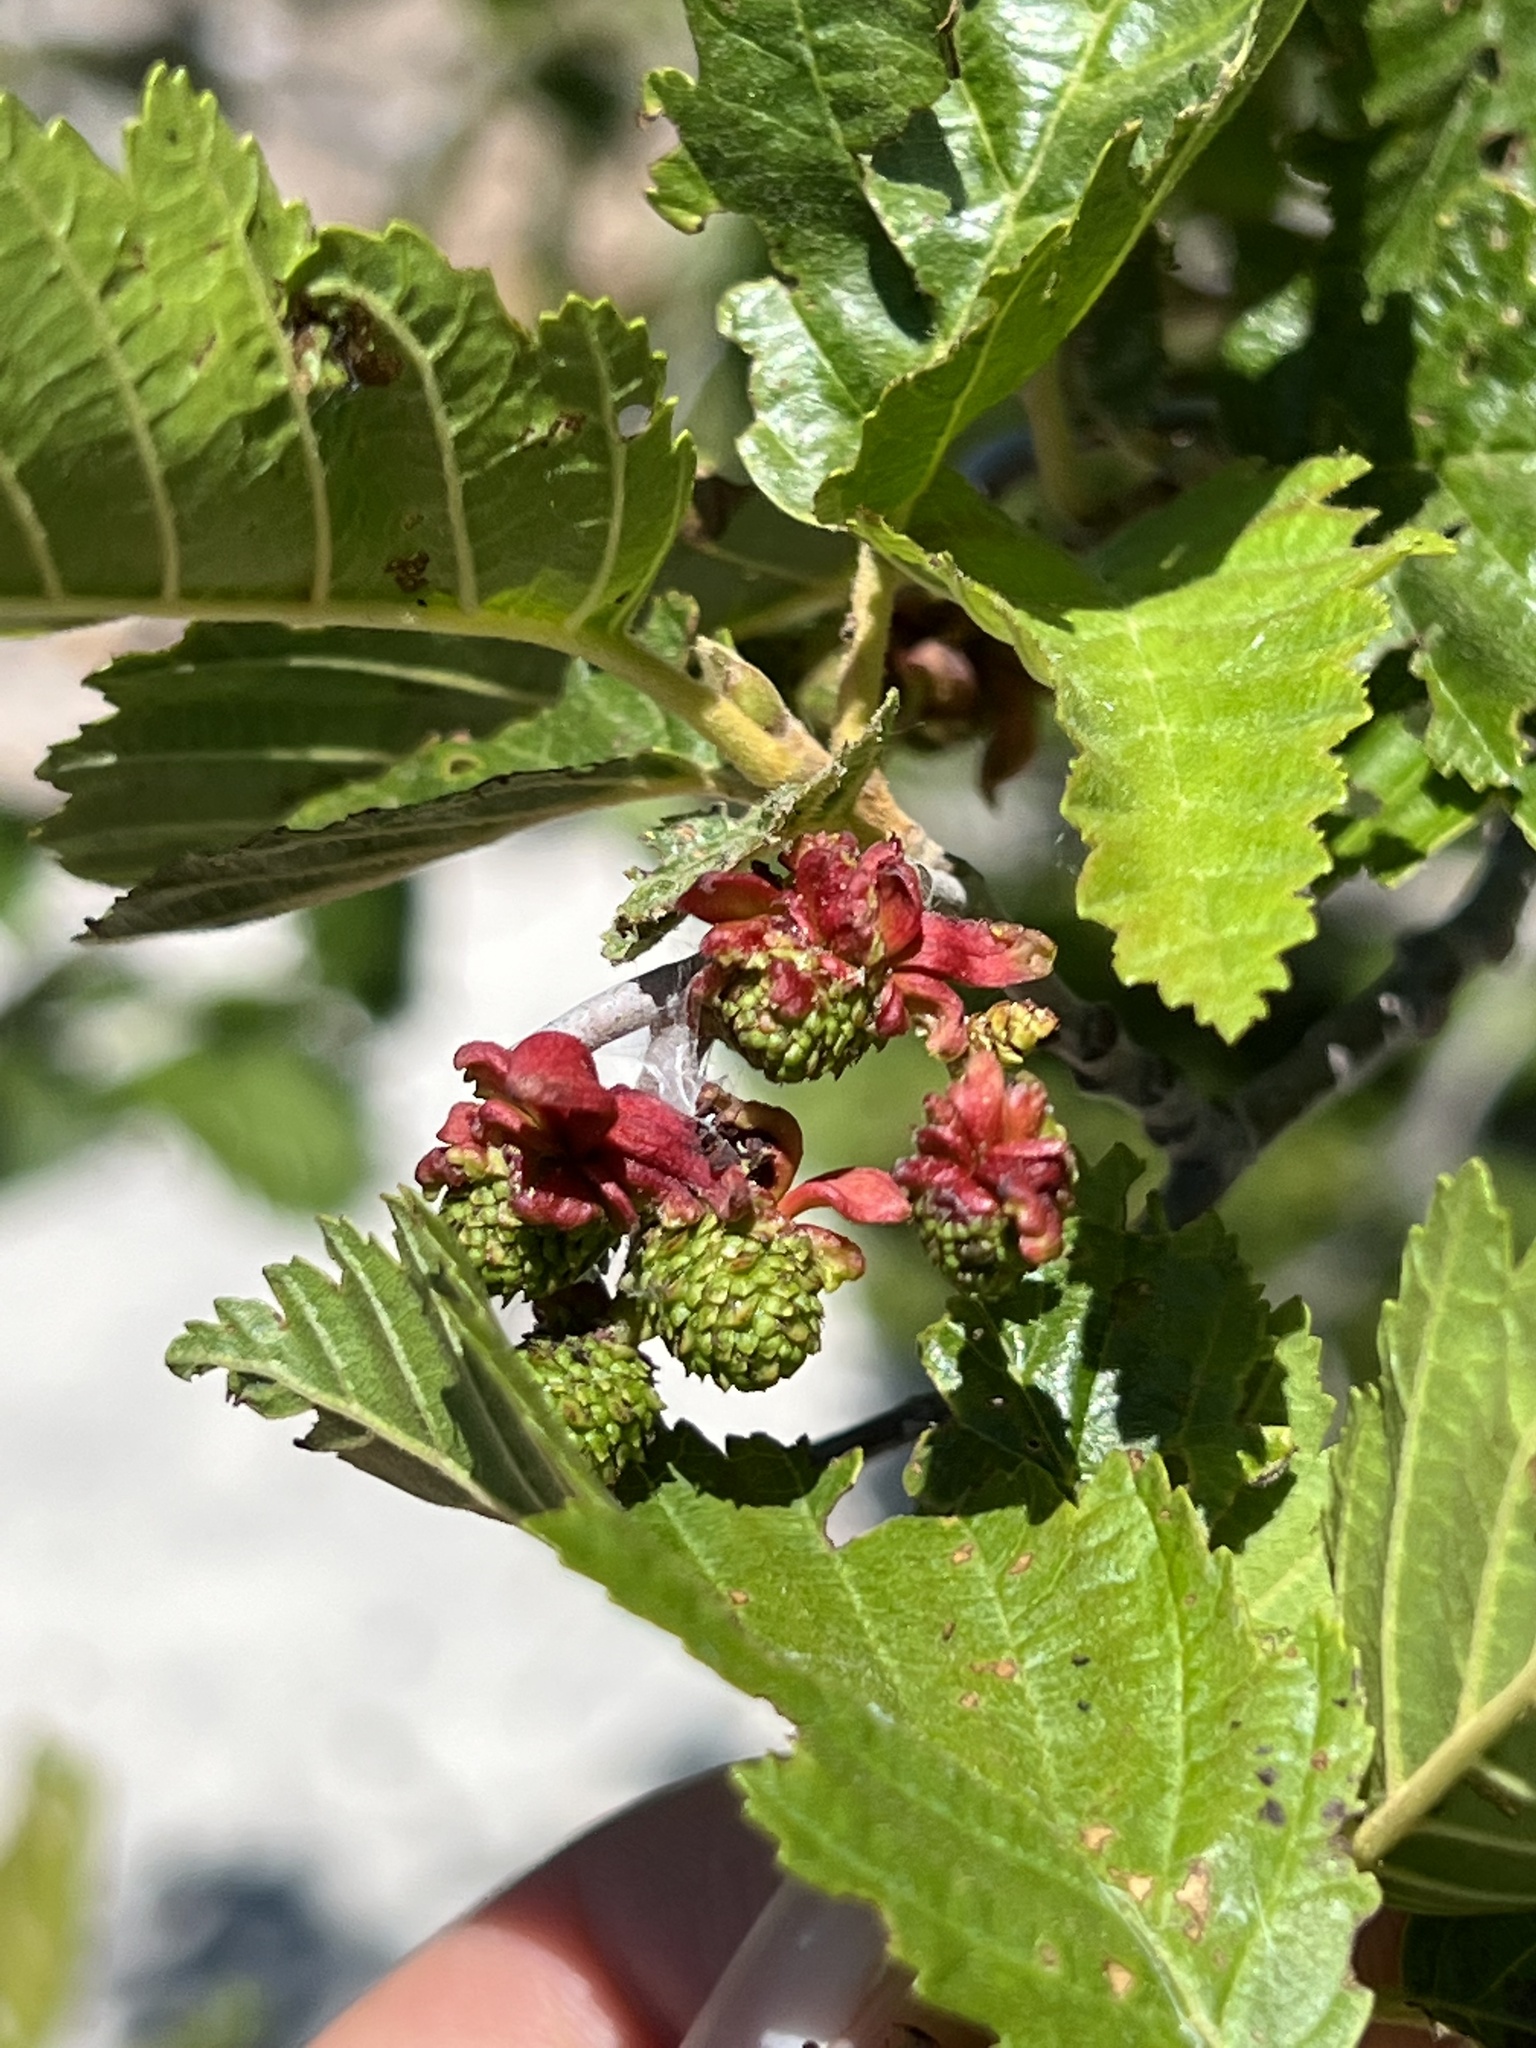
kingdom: Fungi
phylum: Ascomycota
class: Taphrinomycetes
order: Taphrinales
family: Taphrinaceae
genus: Taphrina
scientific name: Taphrina occidentalis
